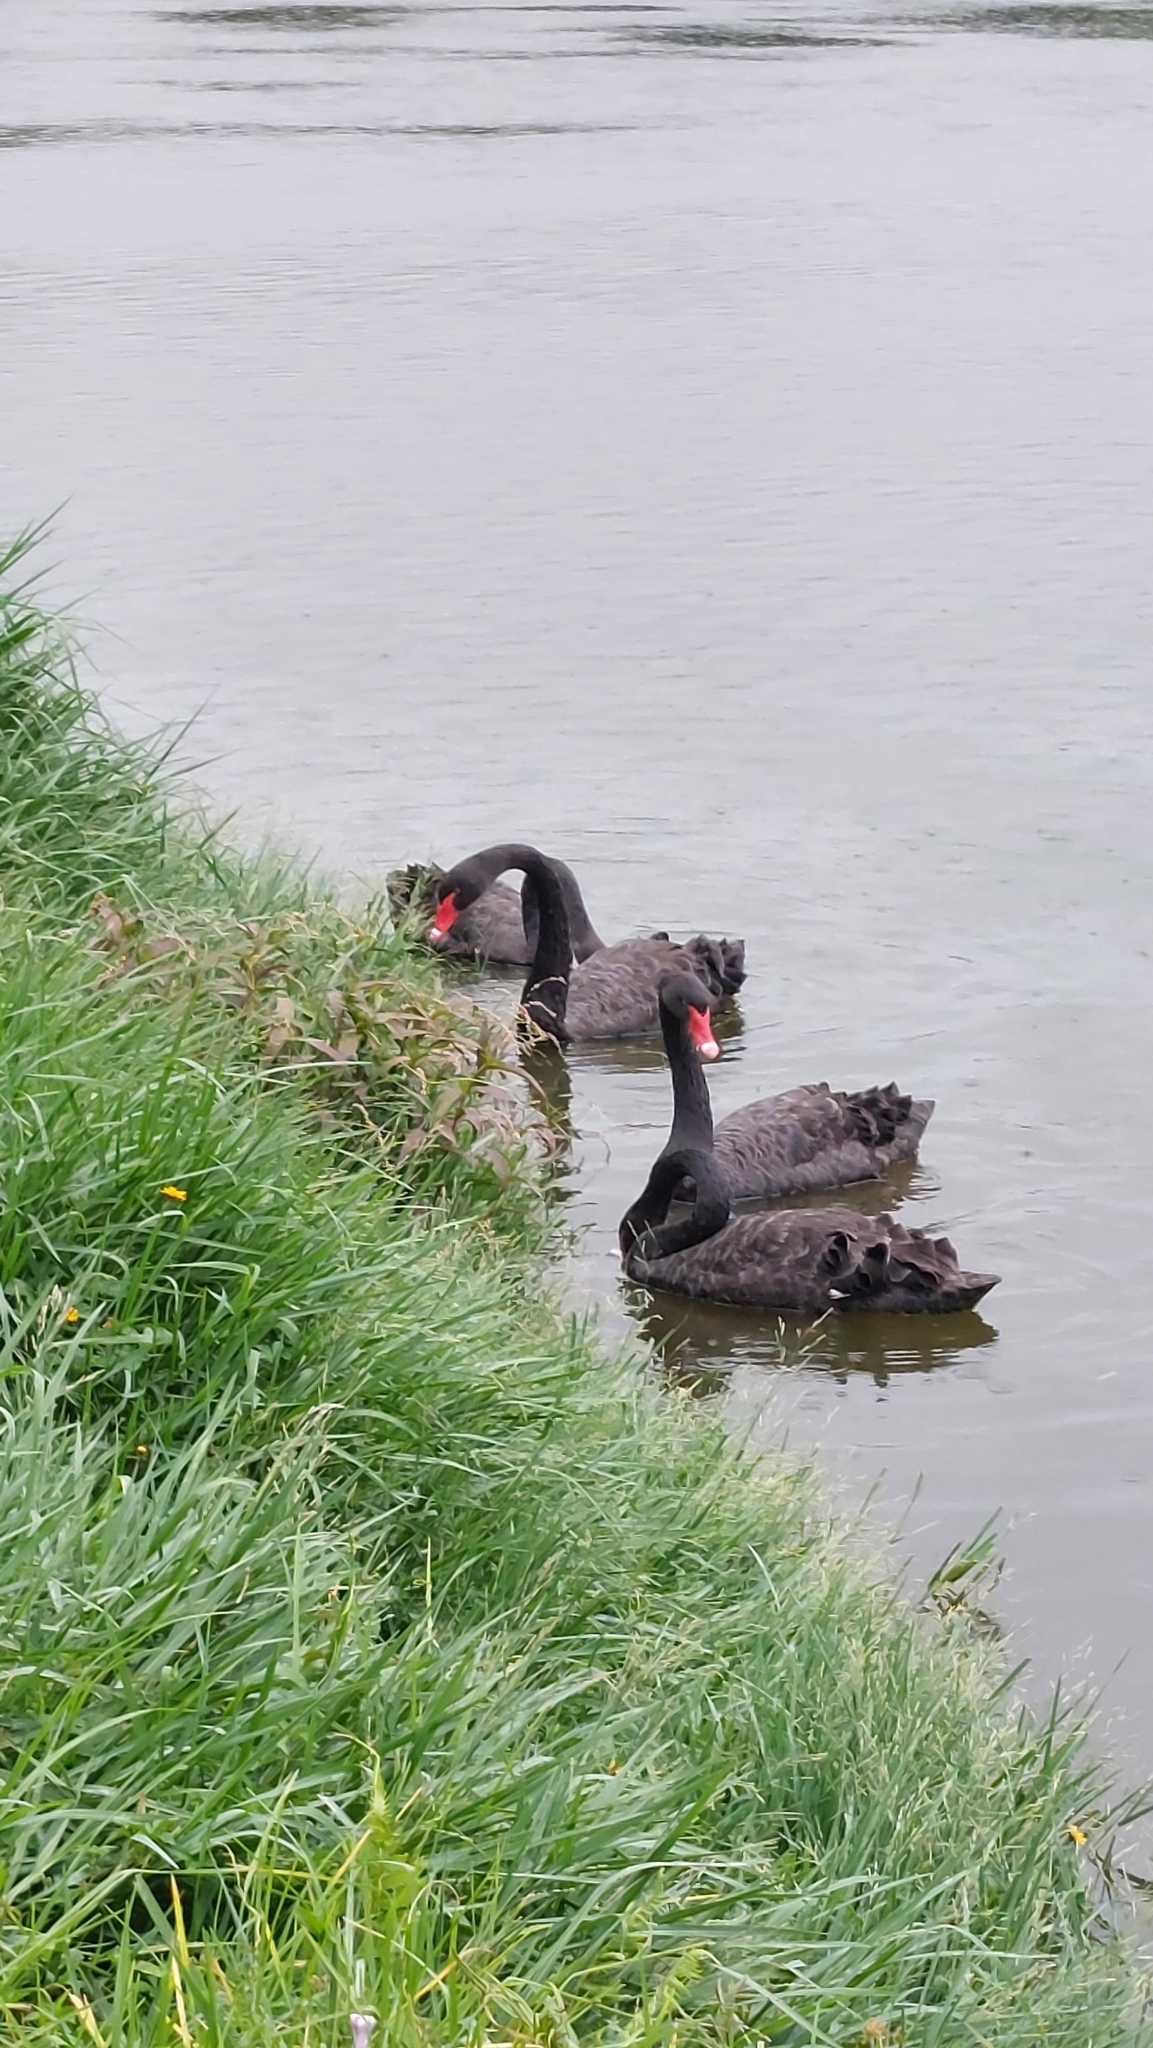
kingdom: Animalia
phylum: Chordata
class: Aves
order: Anseriformes
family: Anatidae
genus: Cygnus
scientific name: Cygnus atratus
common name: Black swan
